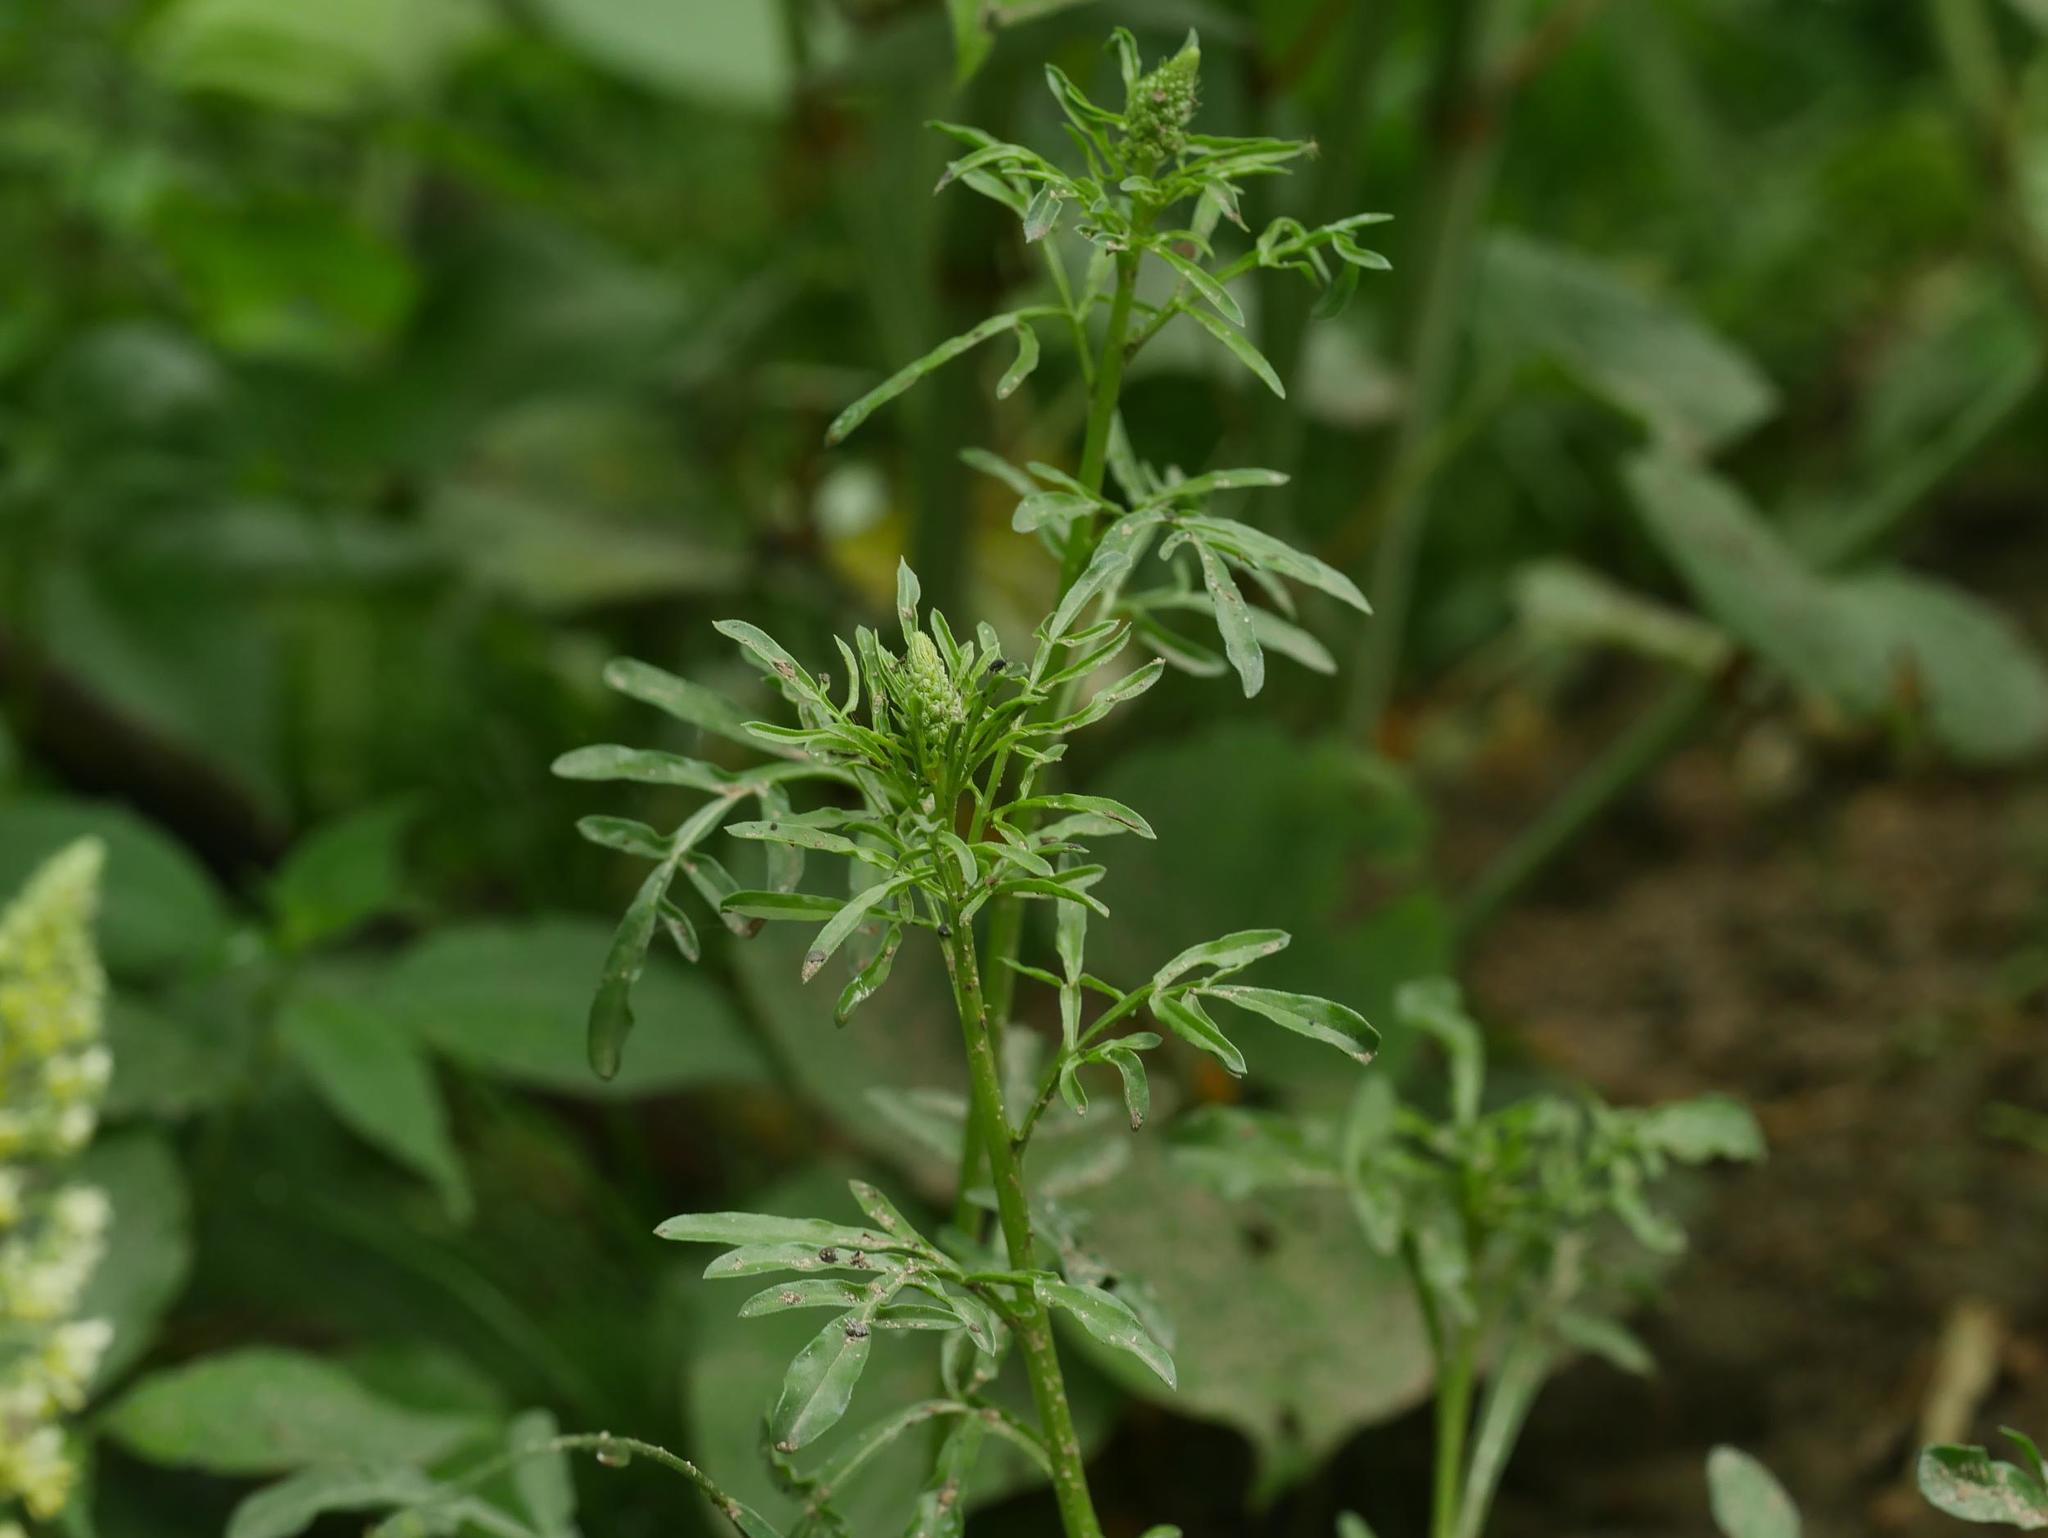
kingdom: Plantae
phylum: Tracheophyta
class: Magnoliopsida
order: Brassicales
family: Resedaceae
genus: Reseda
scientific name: Reseda lutea
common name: Wild mignonette
